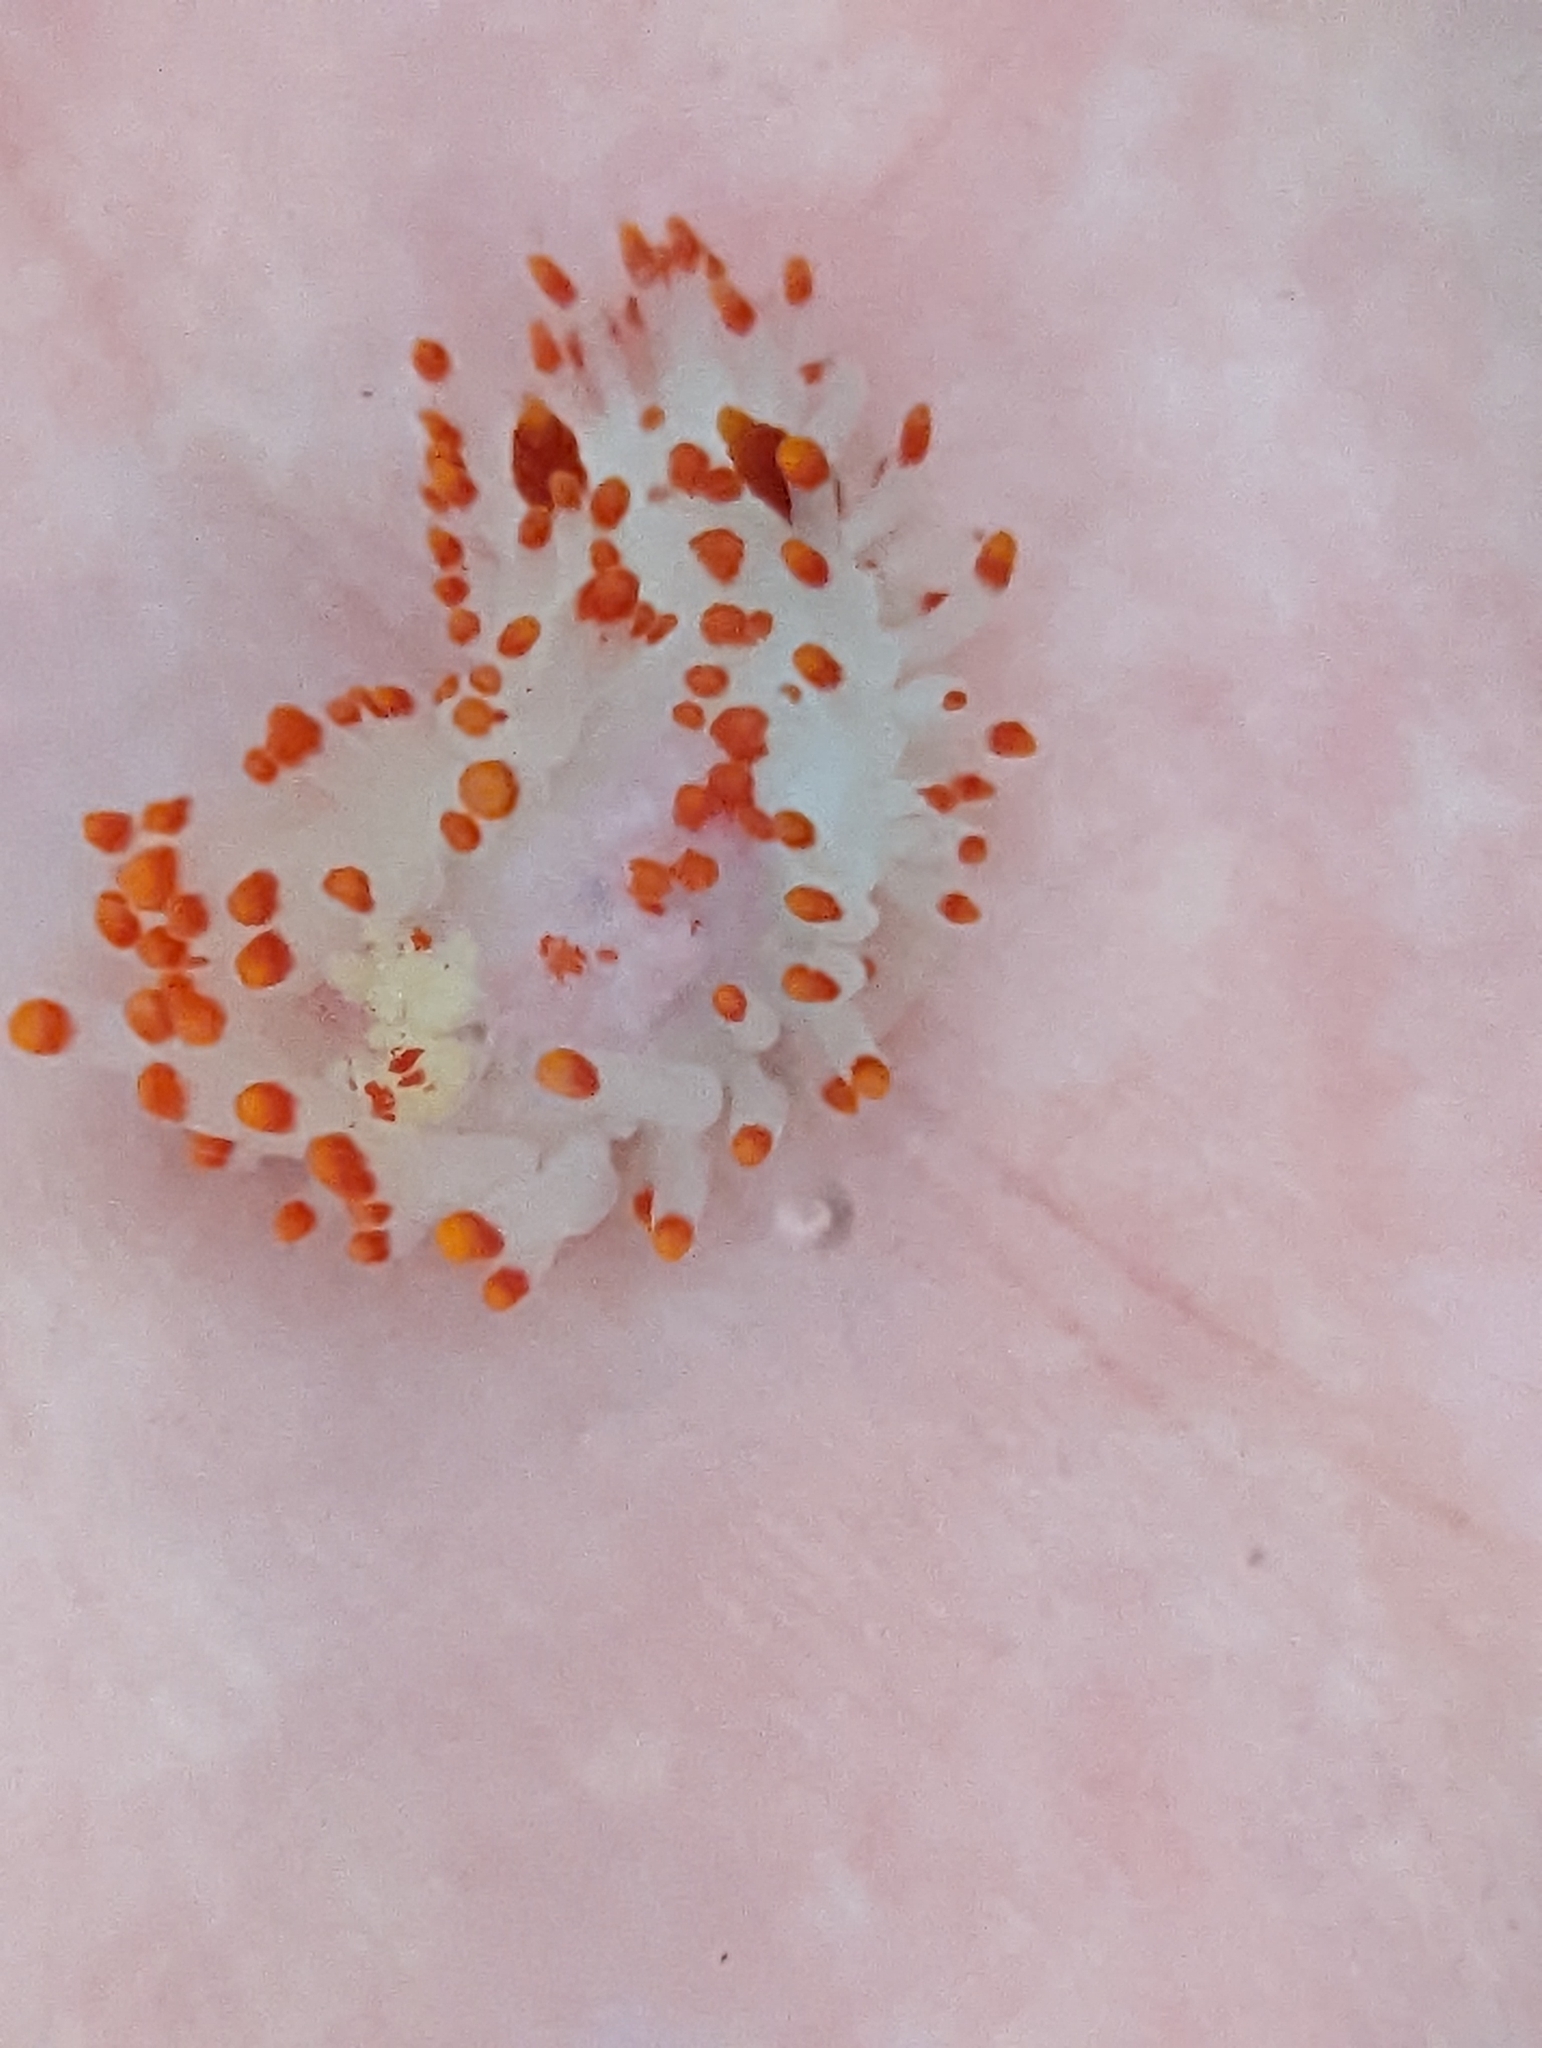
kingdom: Animalia
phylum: Mollusca
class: Gastropoda
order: Nudibranchia
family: Polyceridae
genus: Limacia
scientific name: Limacia mcdonaldi
